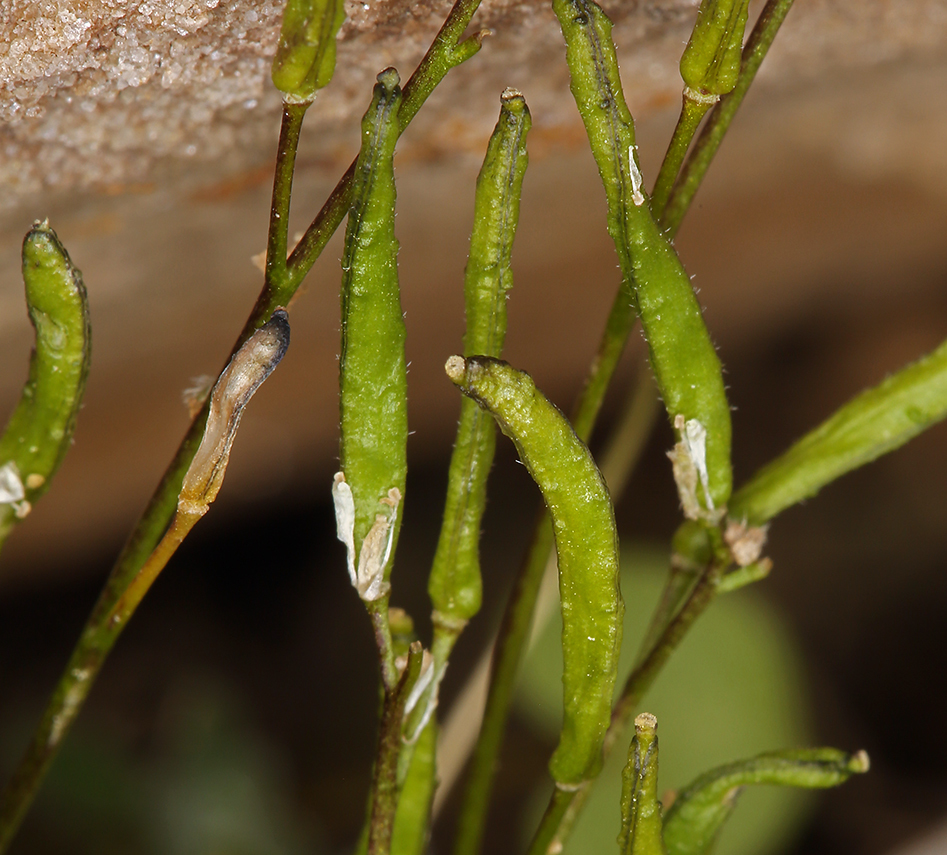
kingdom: Plantae
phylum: Tracheophyta
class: Magnoliopsida
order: Brassicales
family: Brassicaceae
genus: Draba
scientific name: Draba lonchocarpa
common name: Lance-fruit draba
